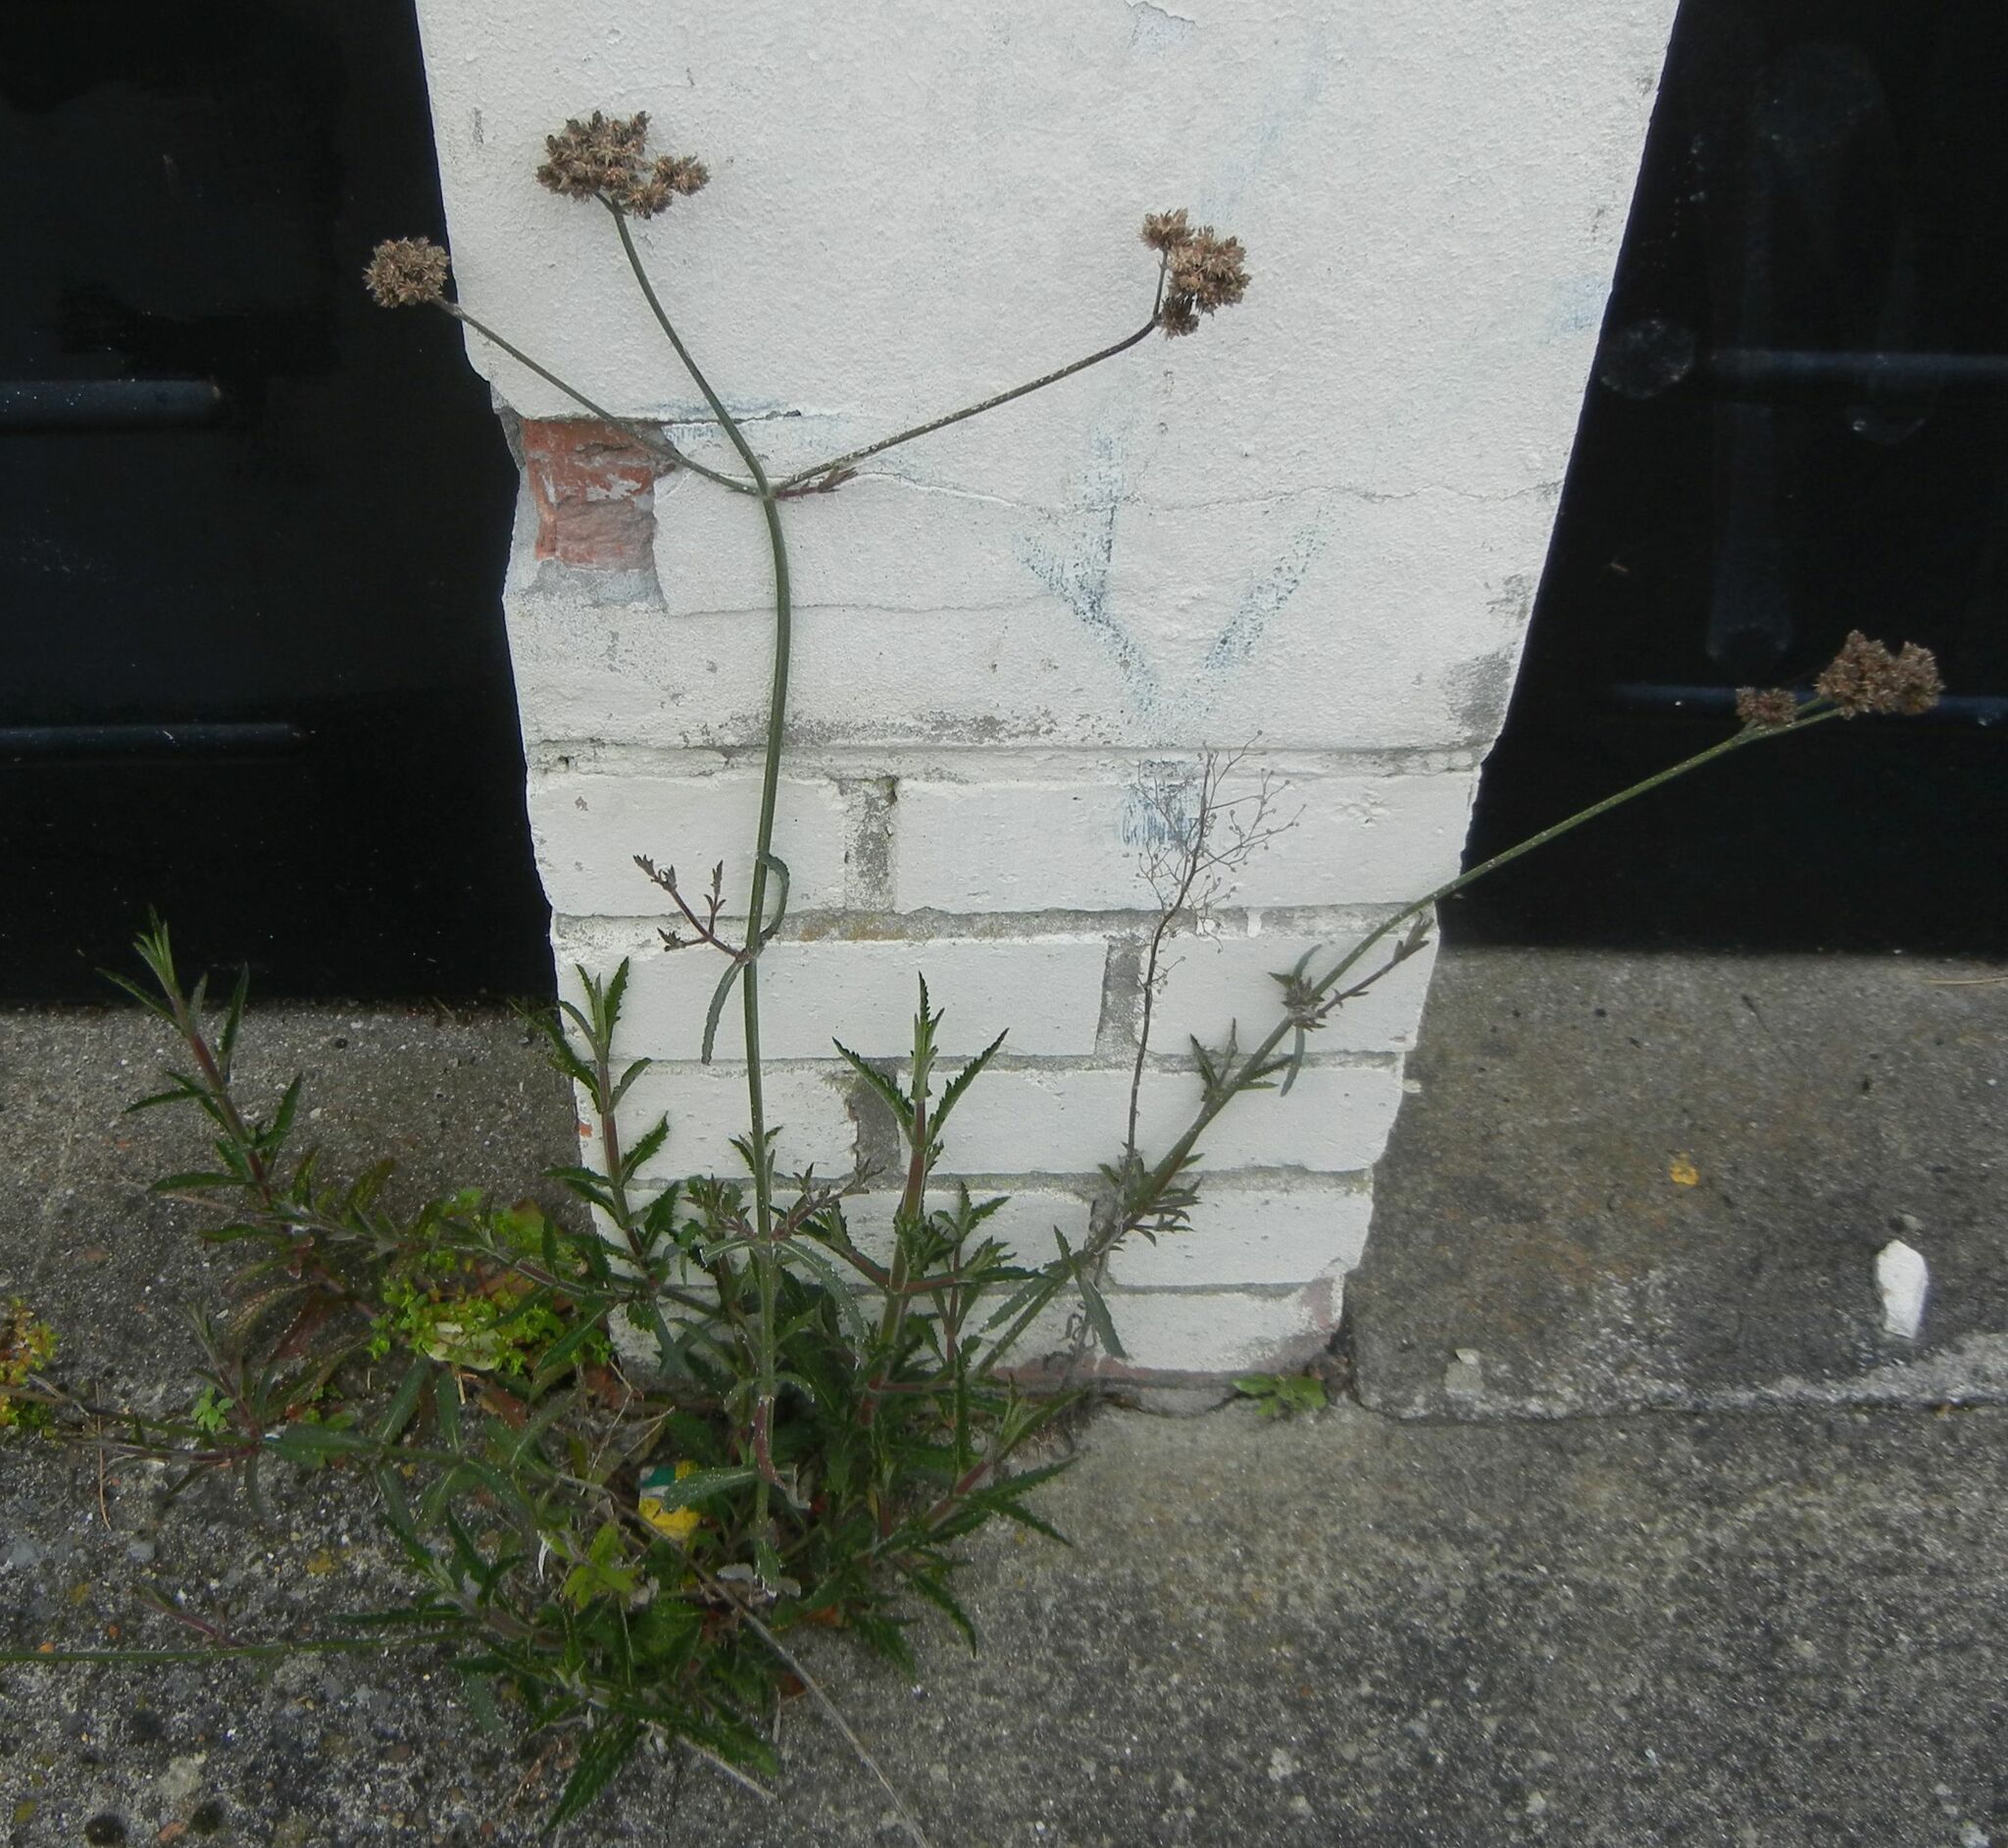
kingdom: Plantae
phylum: Tracheophyta
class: Magnoliopsida
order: Lamiales
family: Verbenaceae
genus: Verbena
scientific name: Verbena bonariensis
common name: Purpletop vervain
